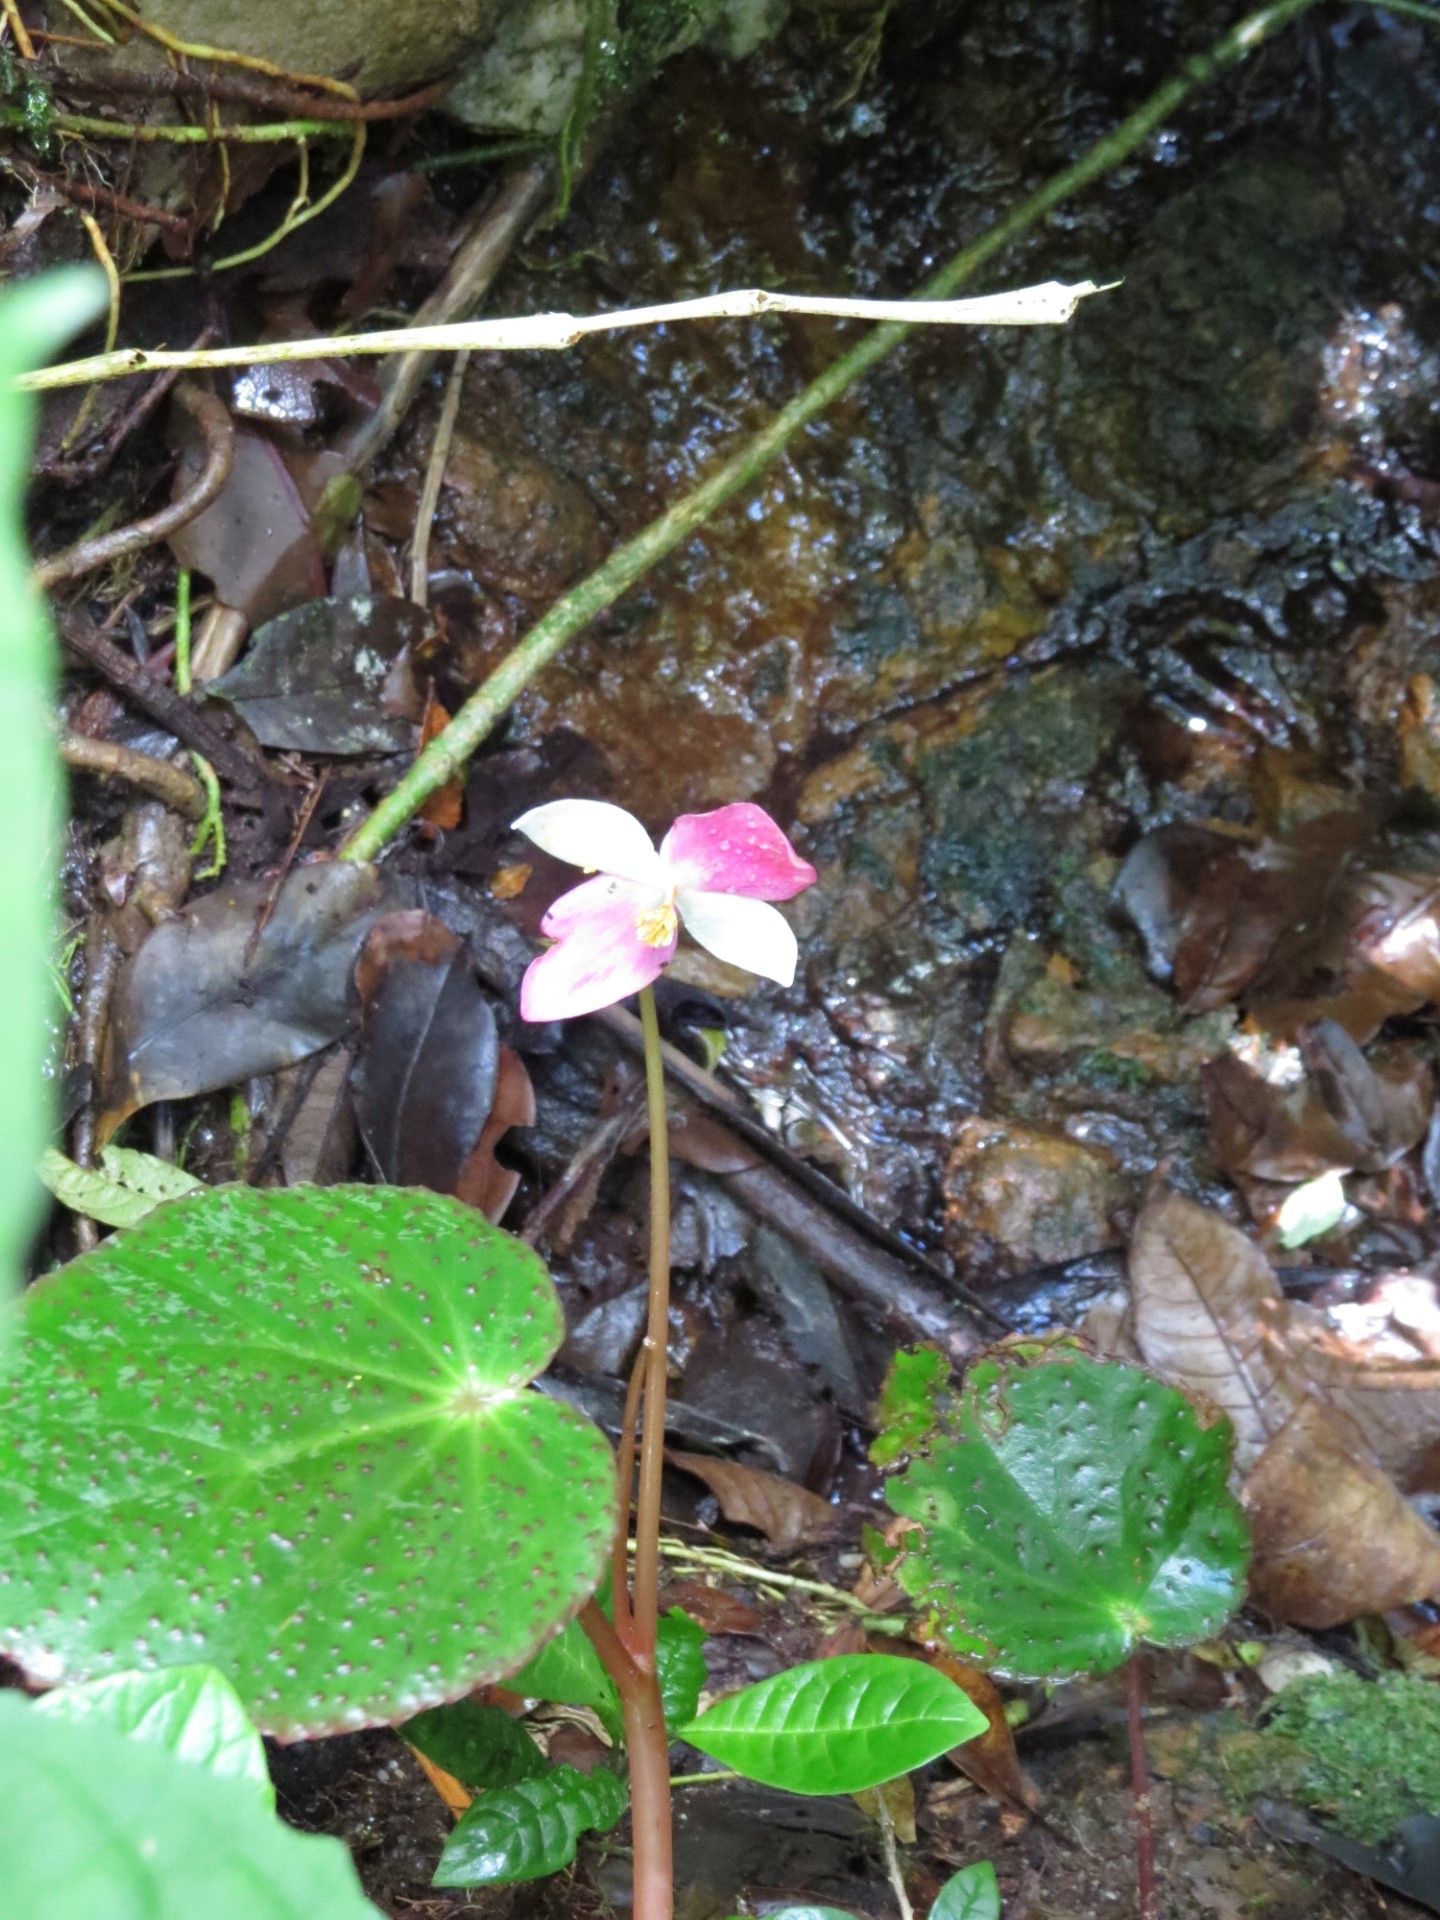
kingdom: Plantae
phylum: Tracheophyta
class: Magnoliopsida
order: Cucurbitales
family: Begoniaceae
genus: Begonia
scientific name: Begonia betsimisaraka
